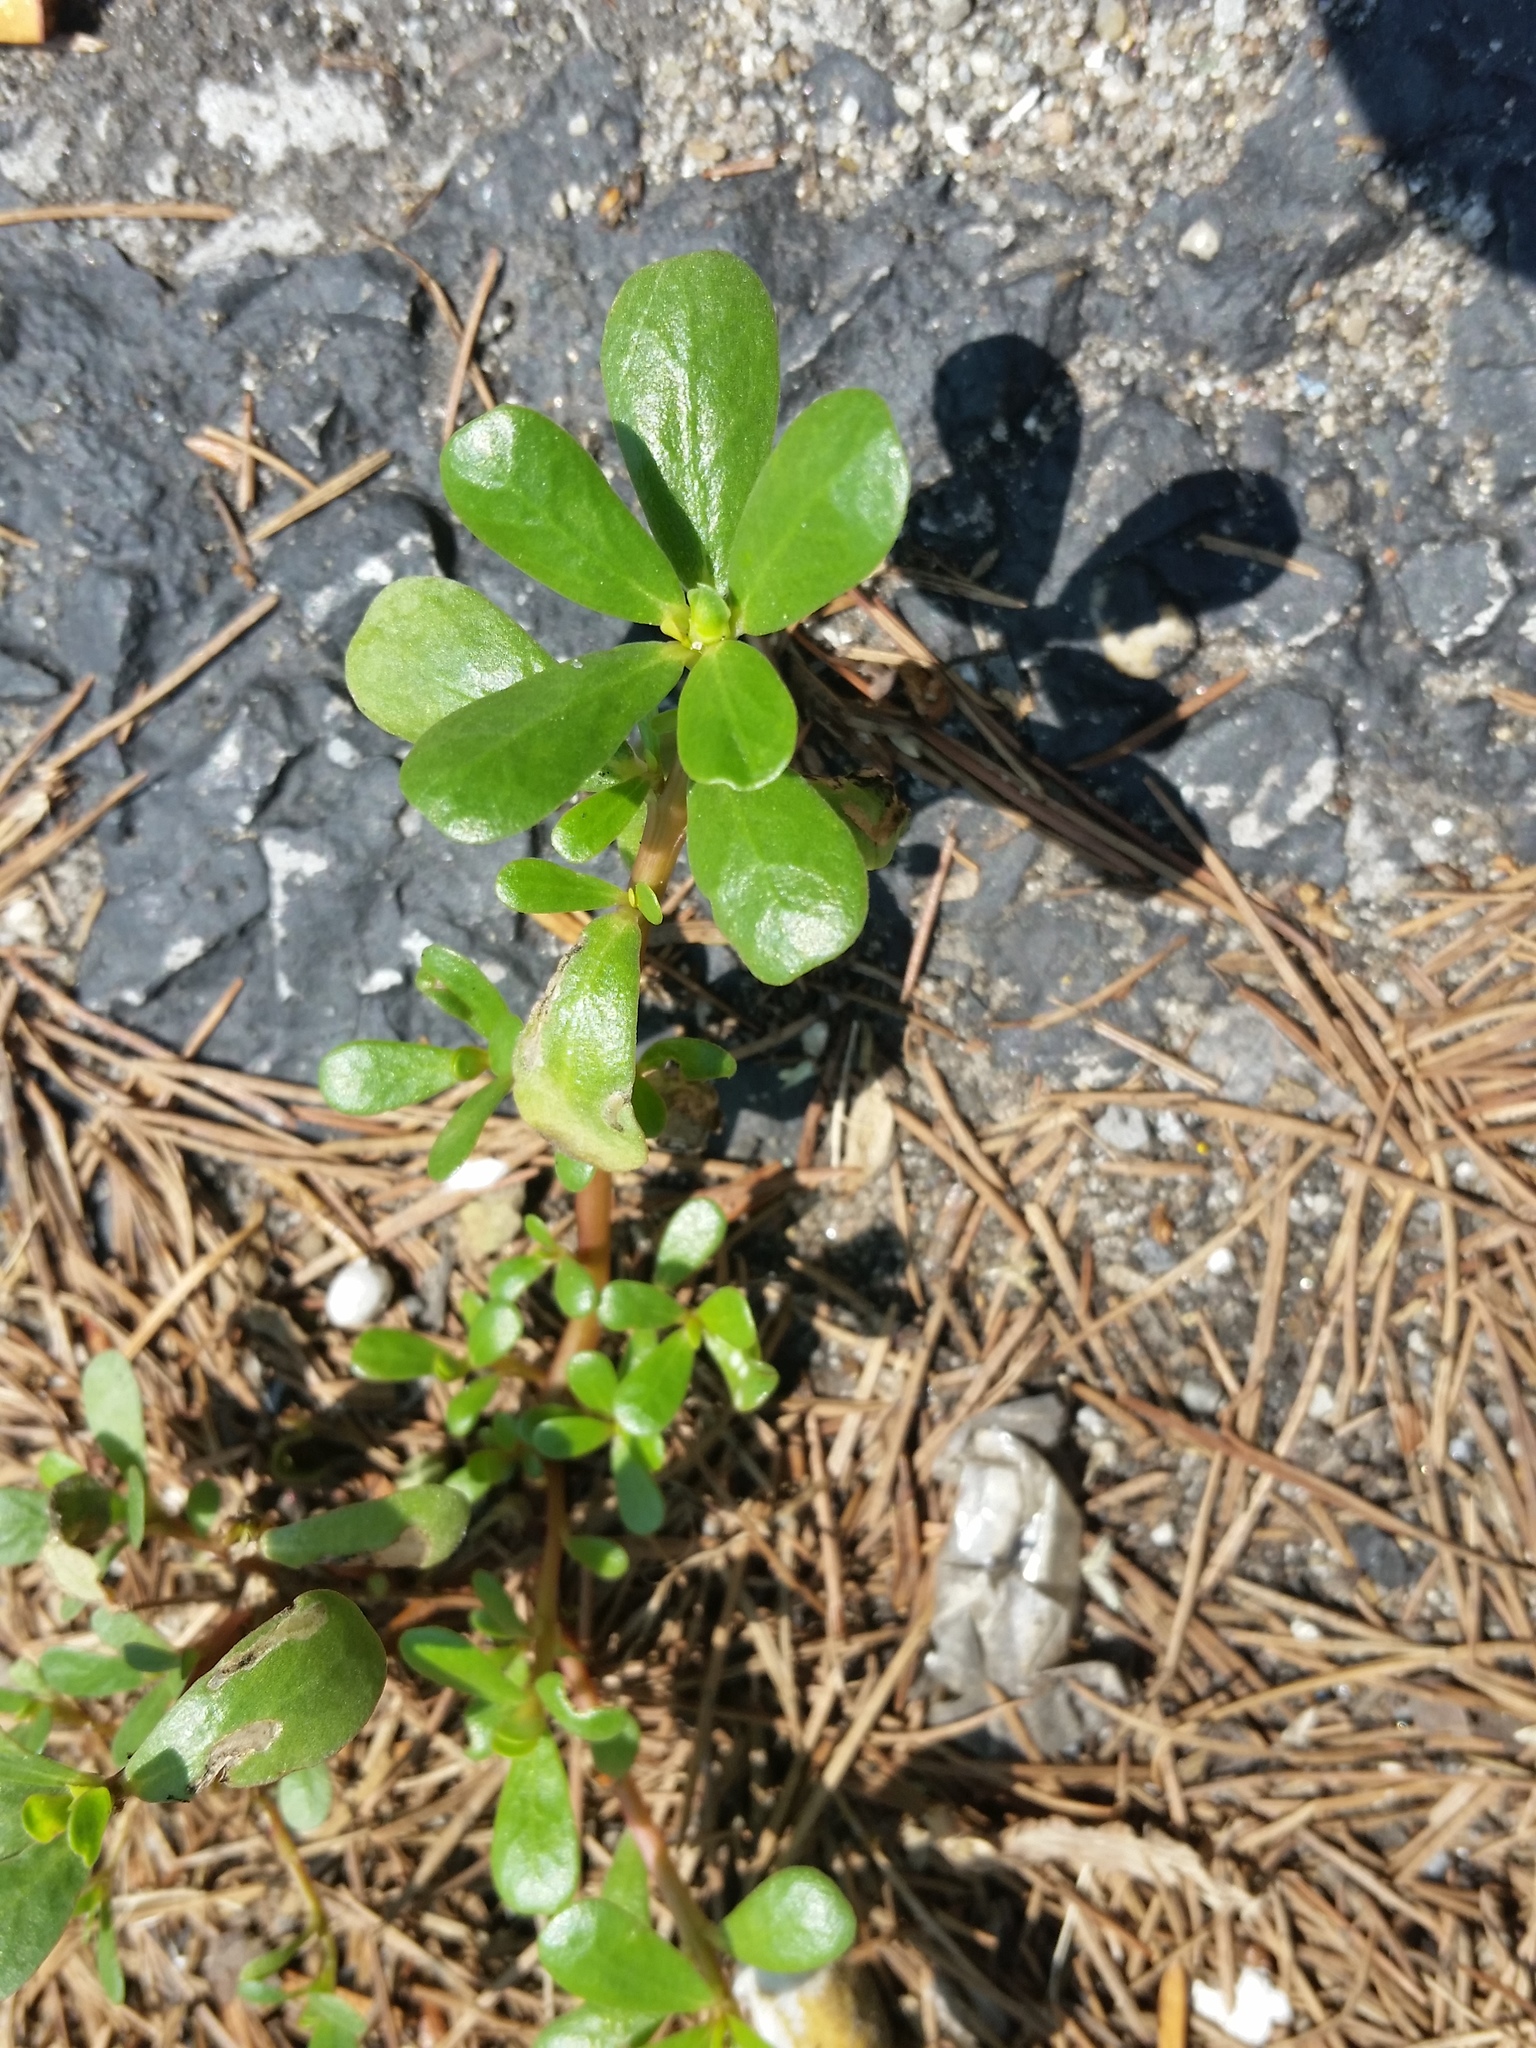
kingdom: Plantae
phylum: Tracheophyta
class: Magnoliopsida
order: Caryophyllales
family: Portulacaceae
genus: Portulaca
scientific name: Portulaca oleracea
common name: Common purslane
